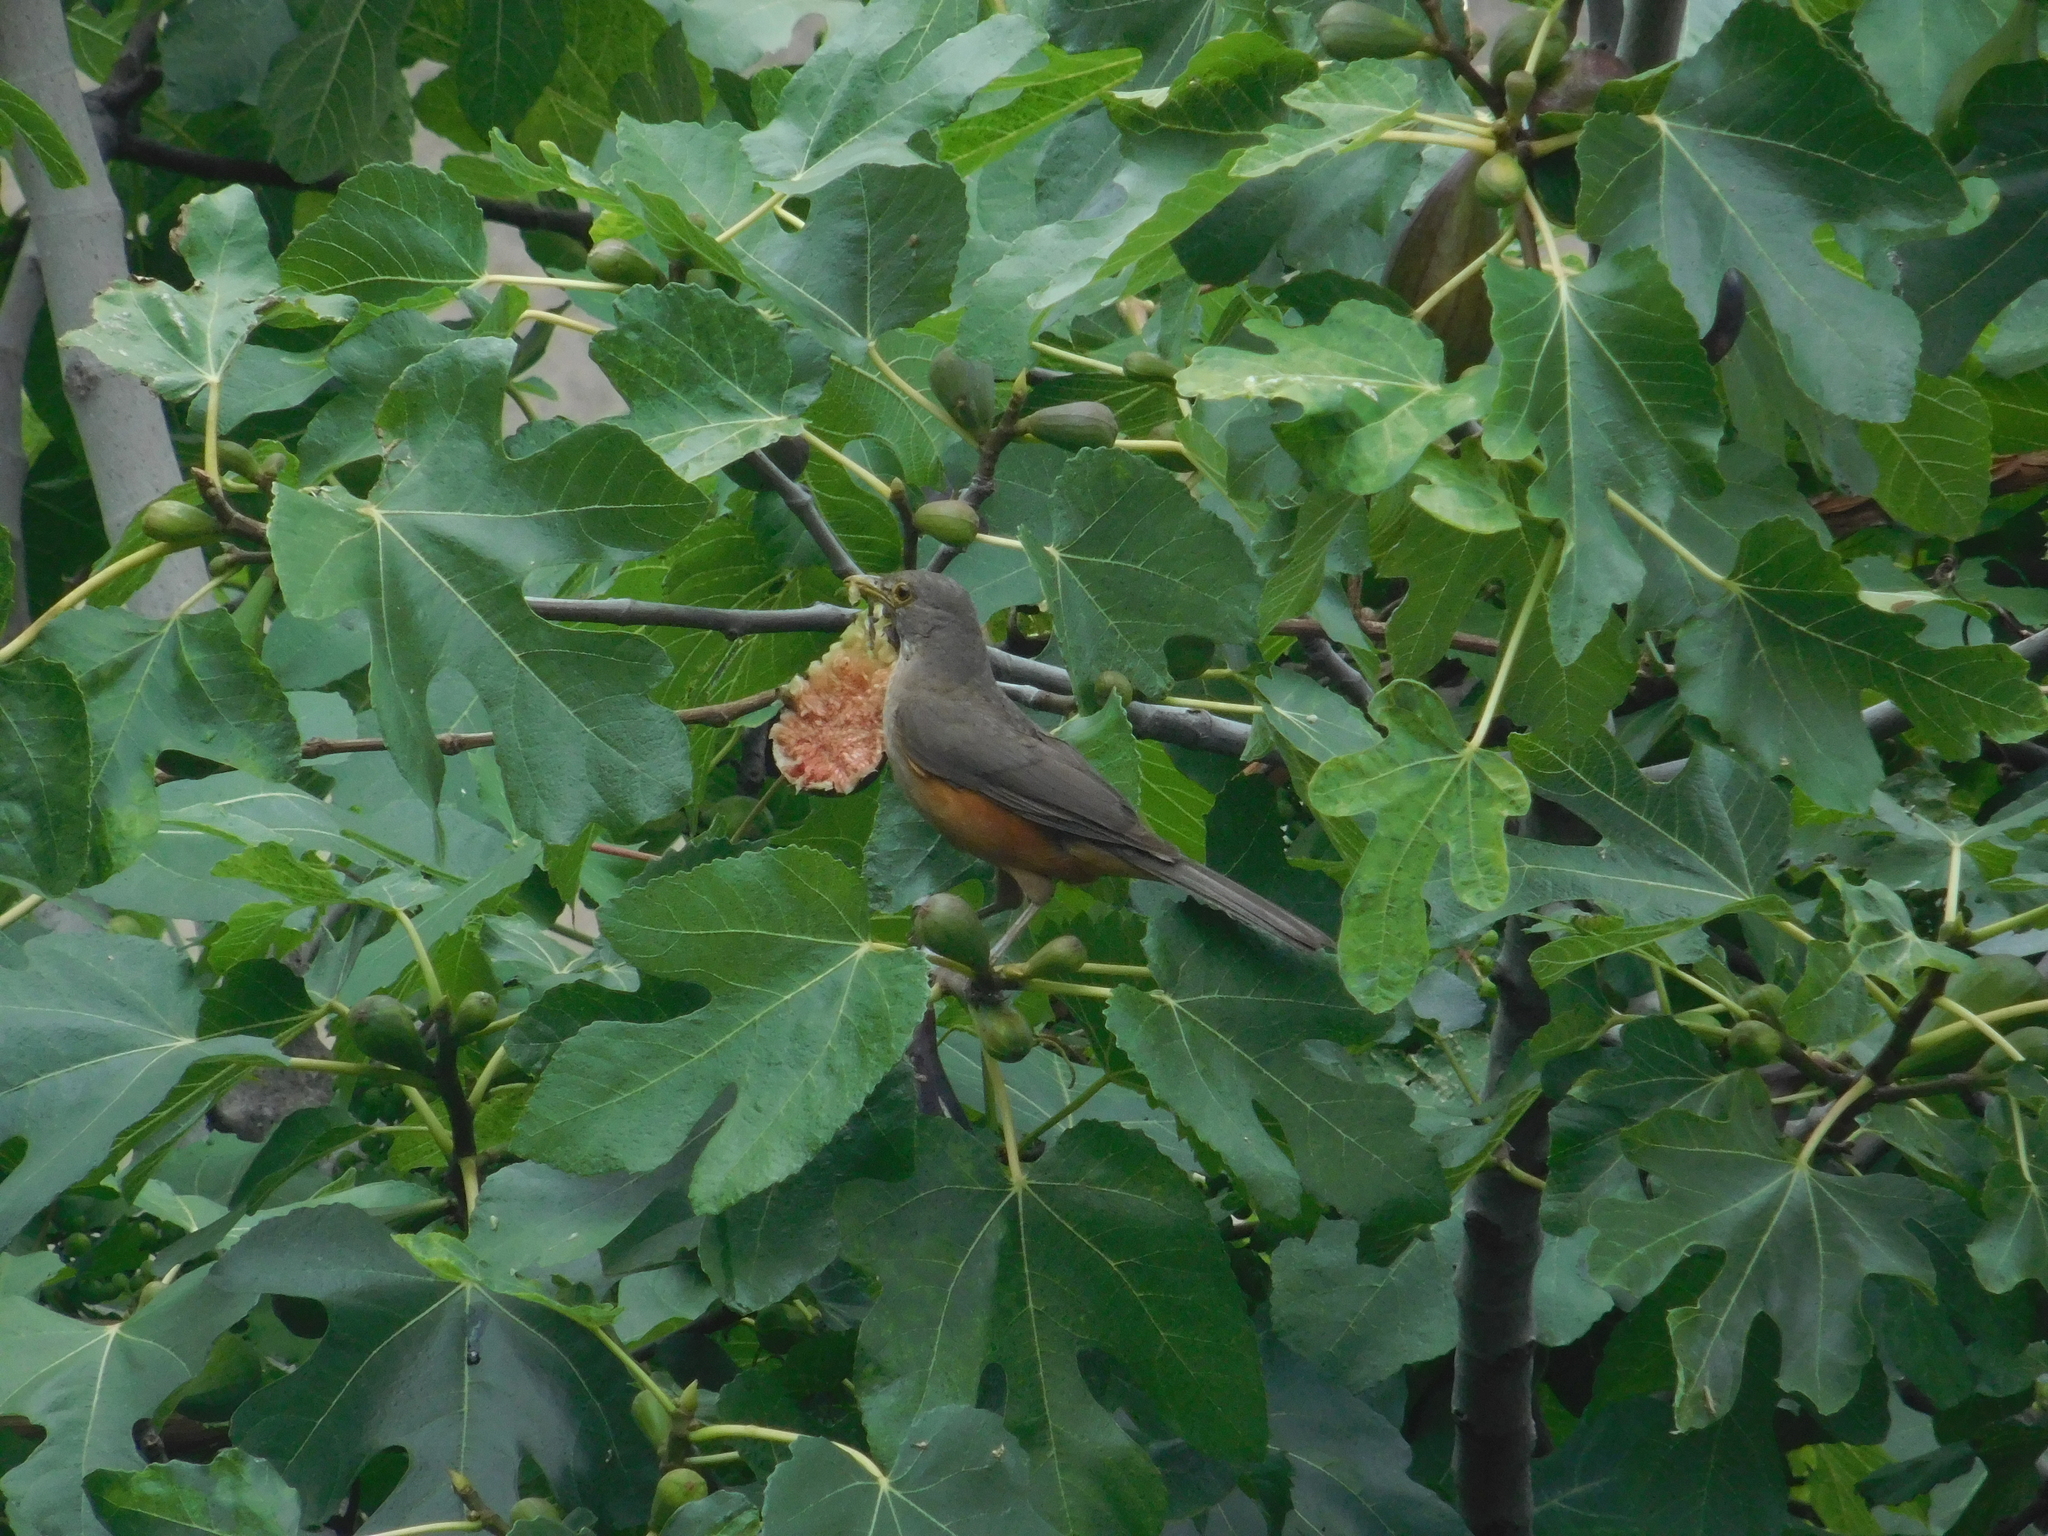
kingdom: Animalia
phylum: Chordata
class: Aves
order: Passeriformes
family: Turdidae
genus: Turdus
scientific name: Turdus rufiventris
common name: Rufous-bellied thrush
